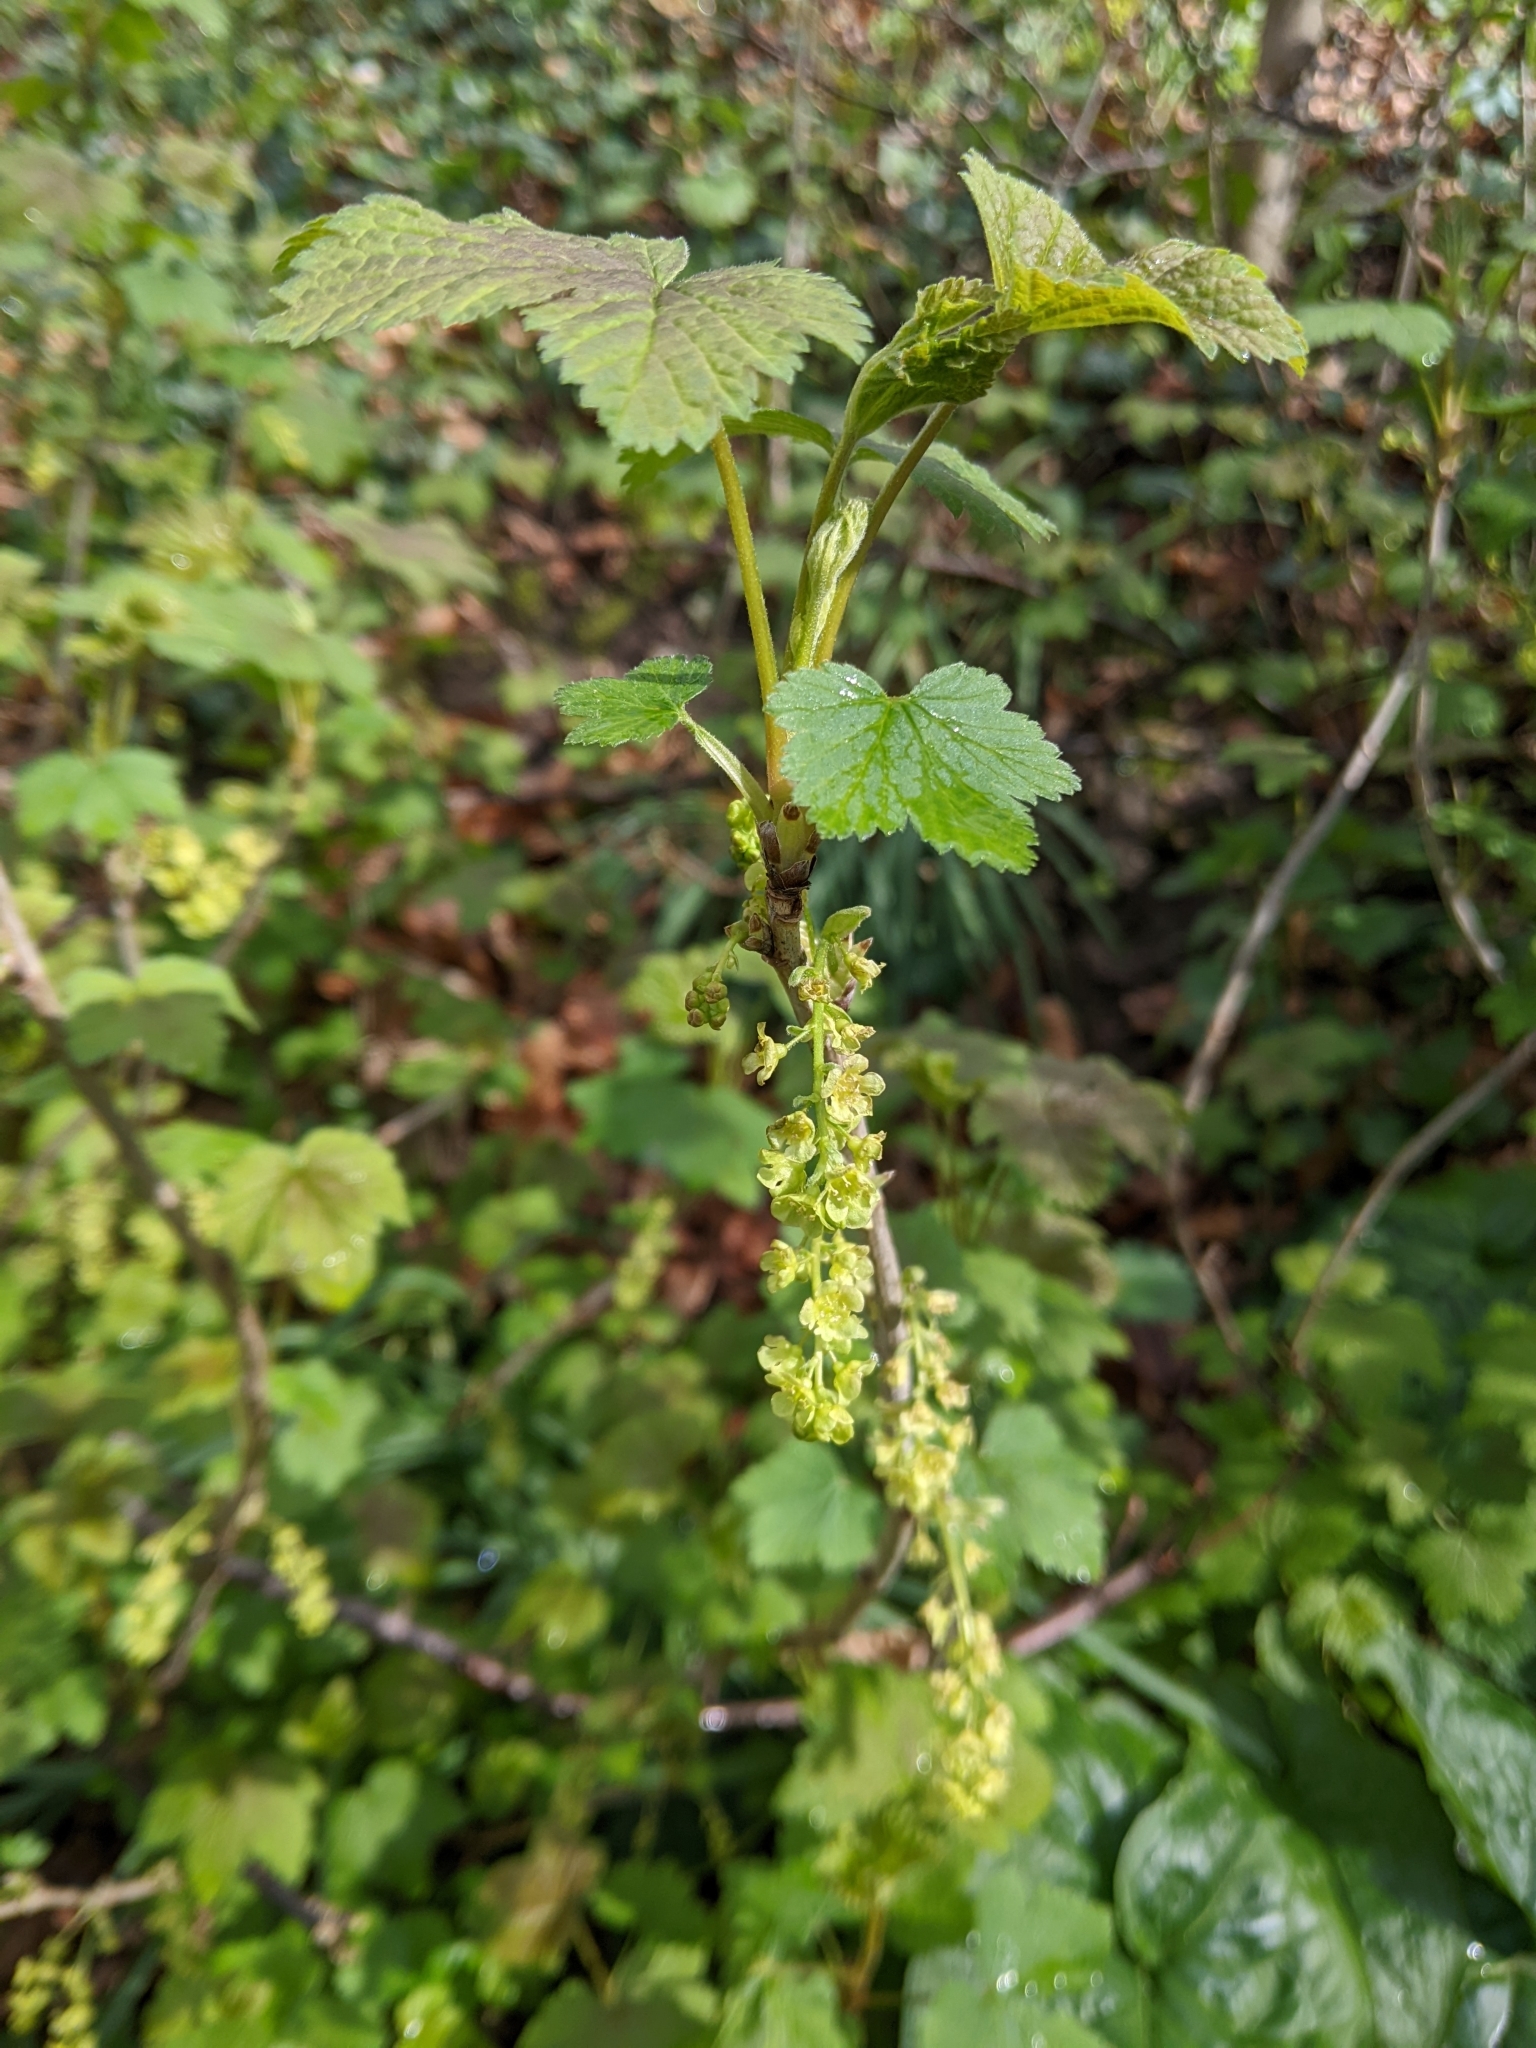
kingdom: Plantae
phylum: Tracheophyta
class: Magnoliopsida
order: Saxifragales
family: Grossulariaceae
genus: Ribes
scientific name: Ribes rubrum
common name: Red currant
